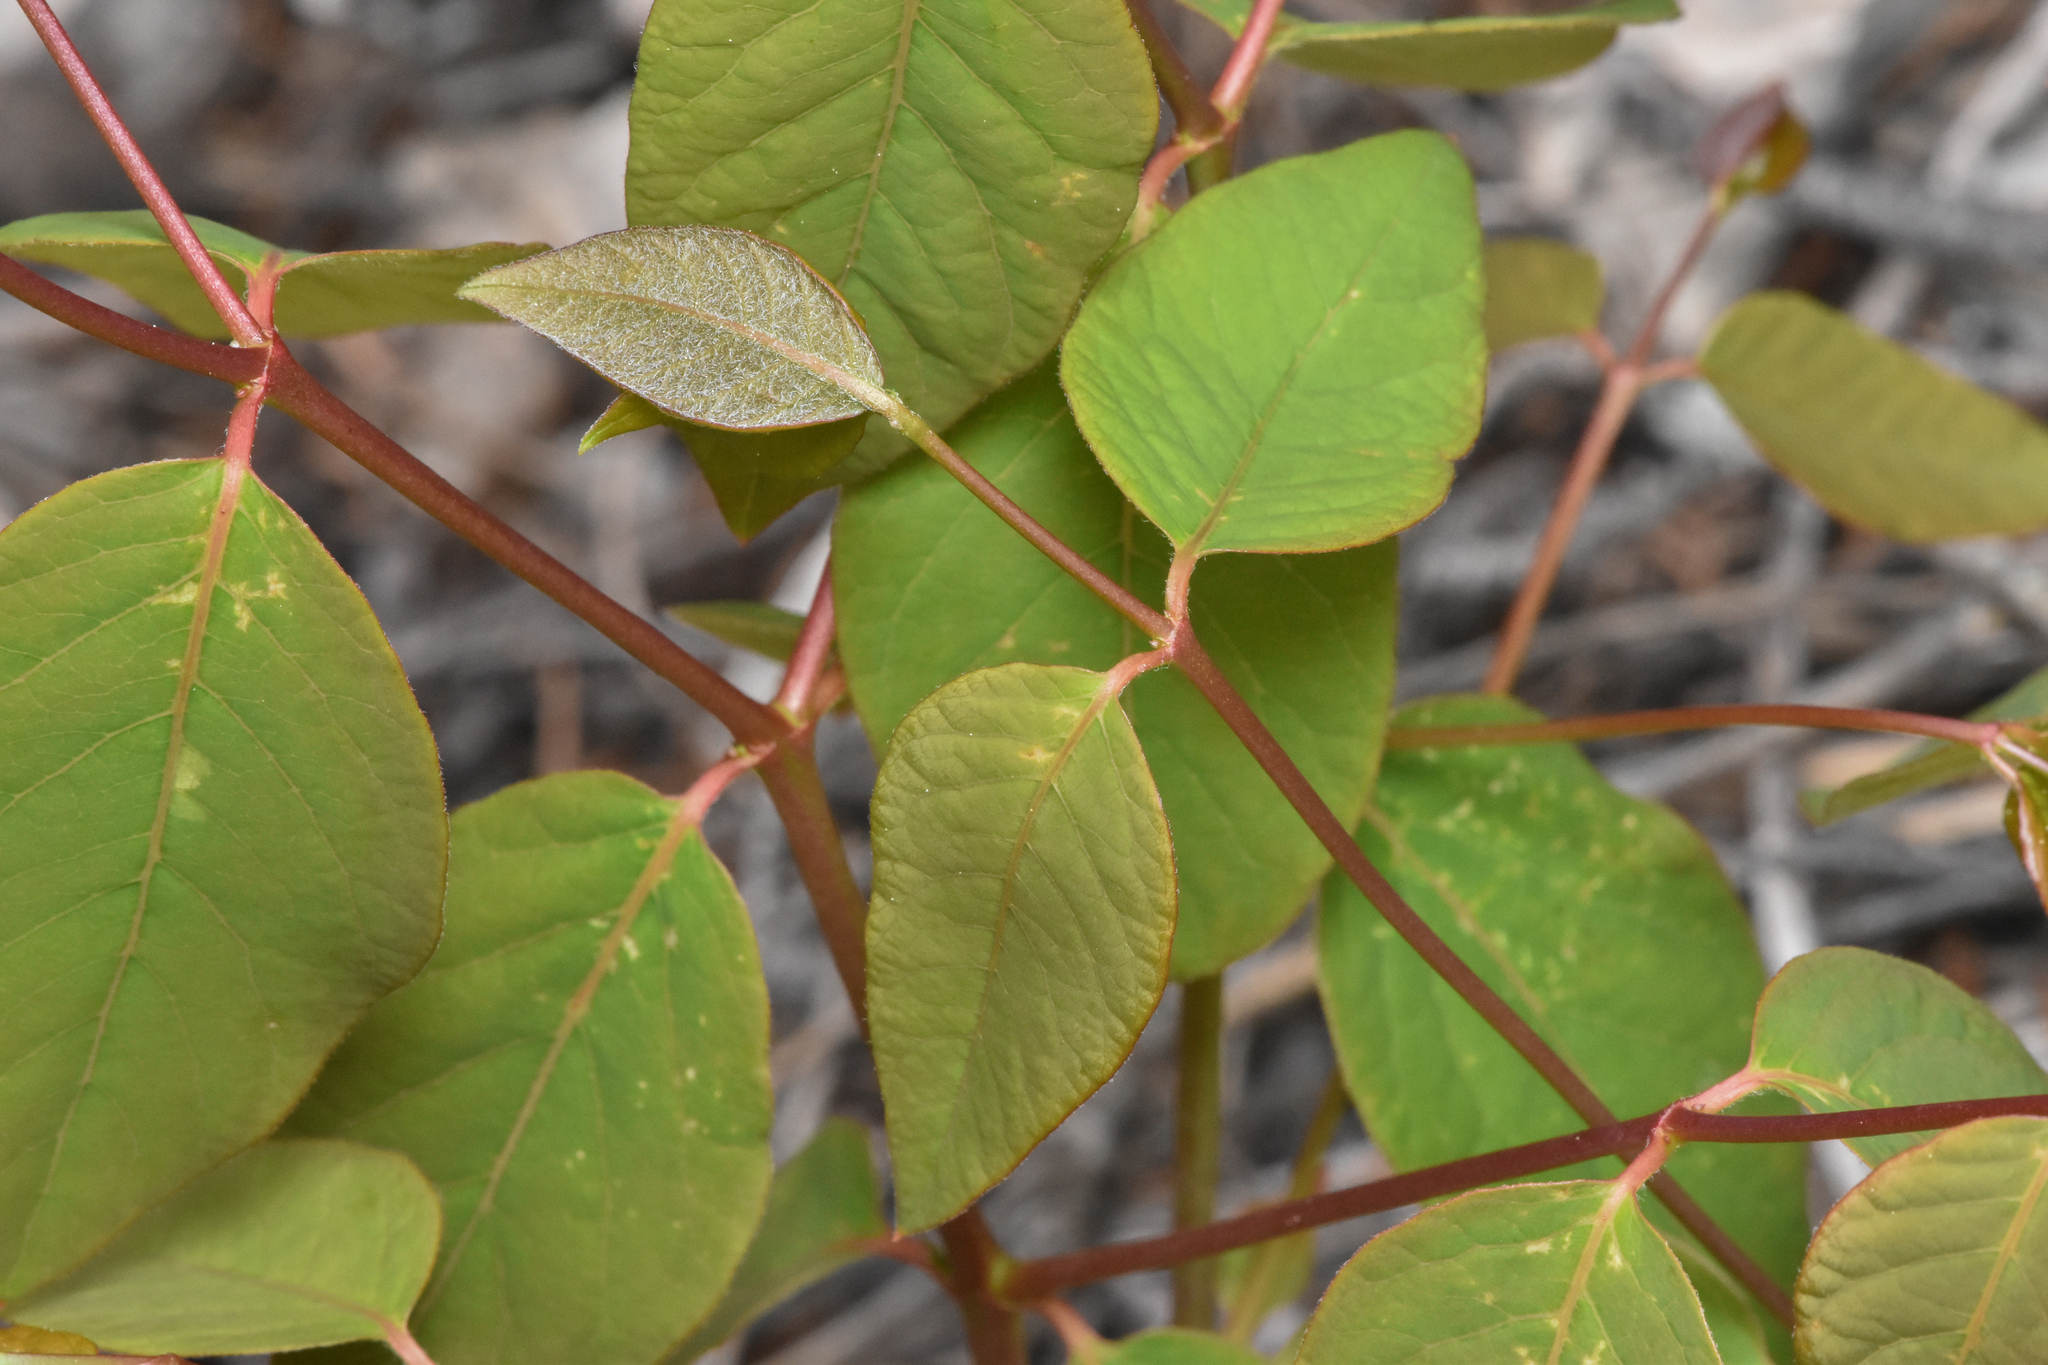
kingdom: Plantae
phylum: Tracheophyta
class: Magnoliopsida
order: Gentianales
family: Apocynaceae
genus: Apocynum
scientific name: Apocynum androsaemifolium
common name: Spreading dogbane
